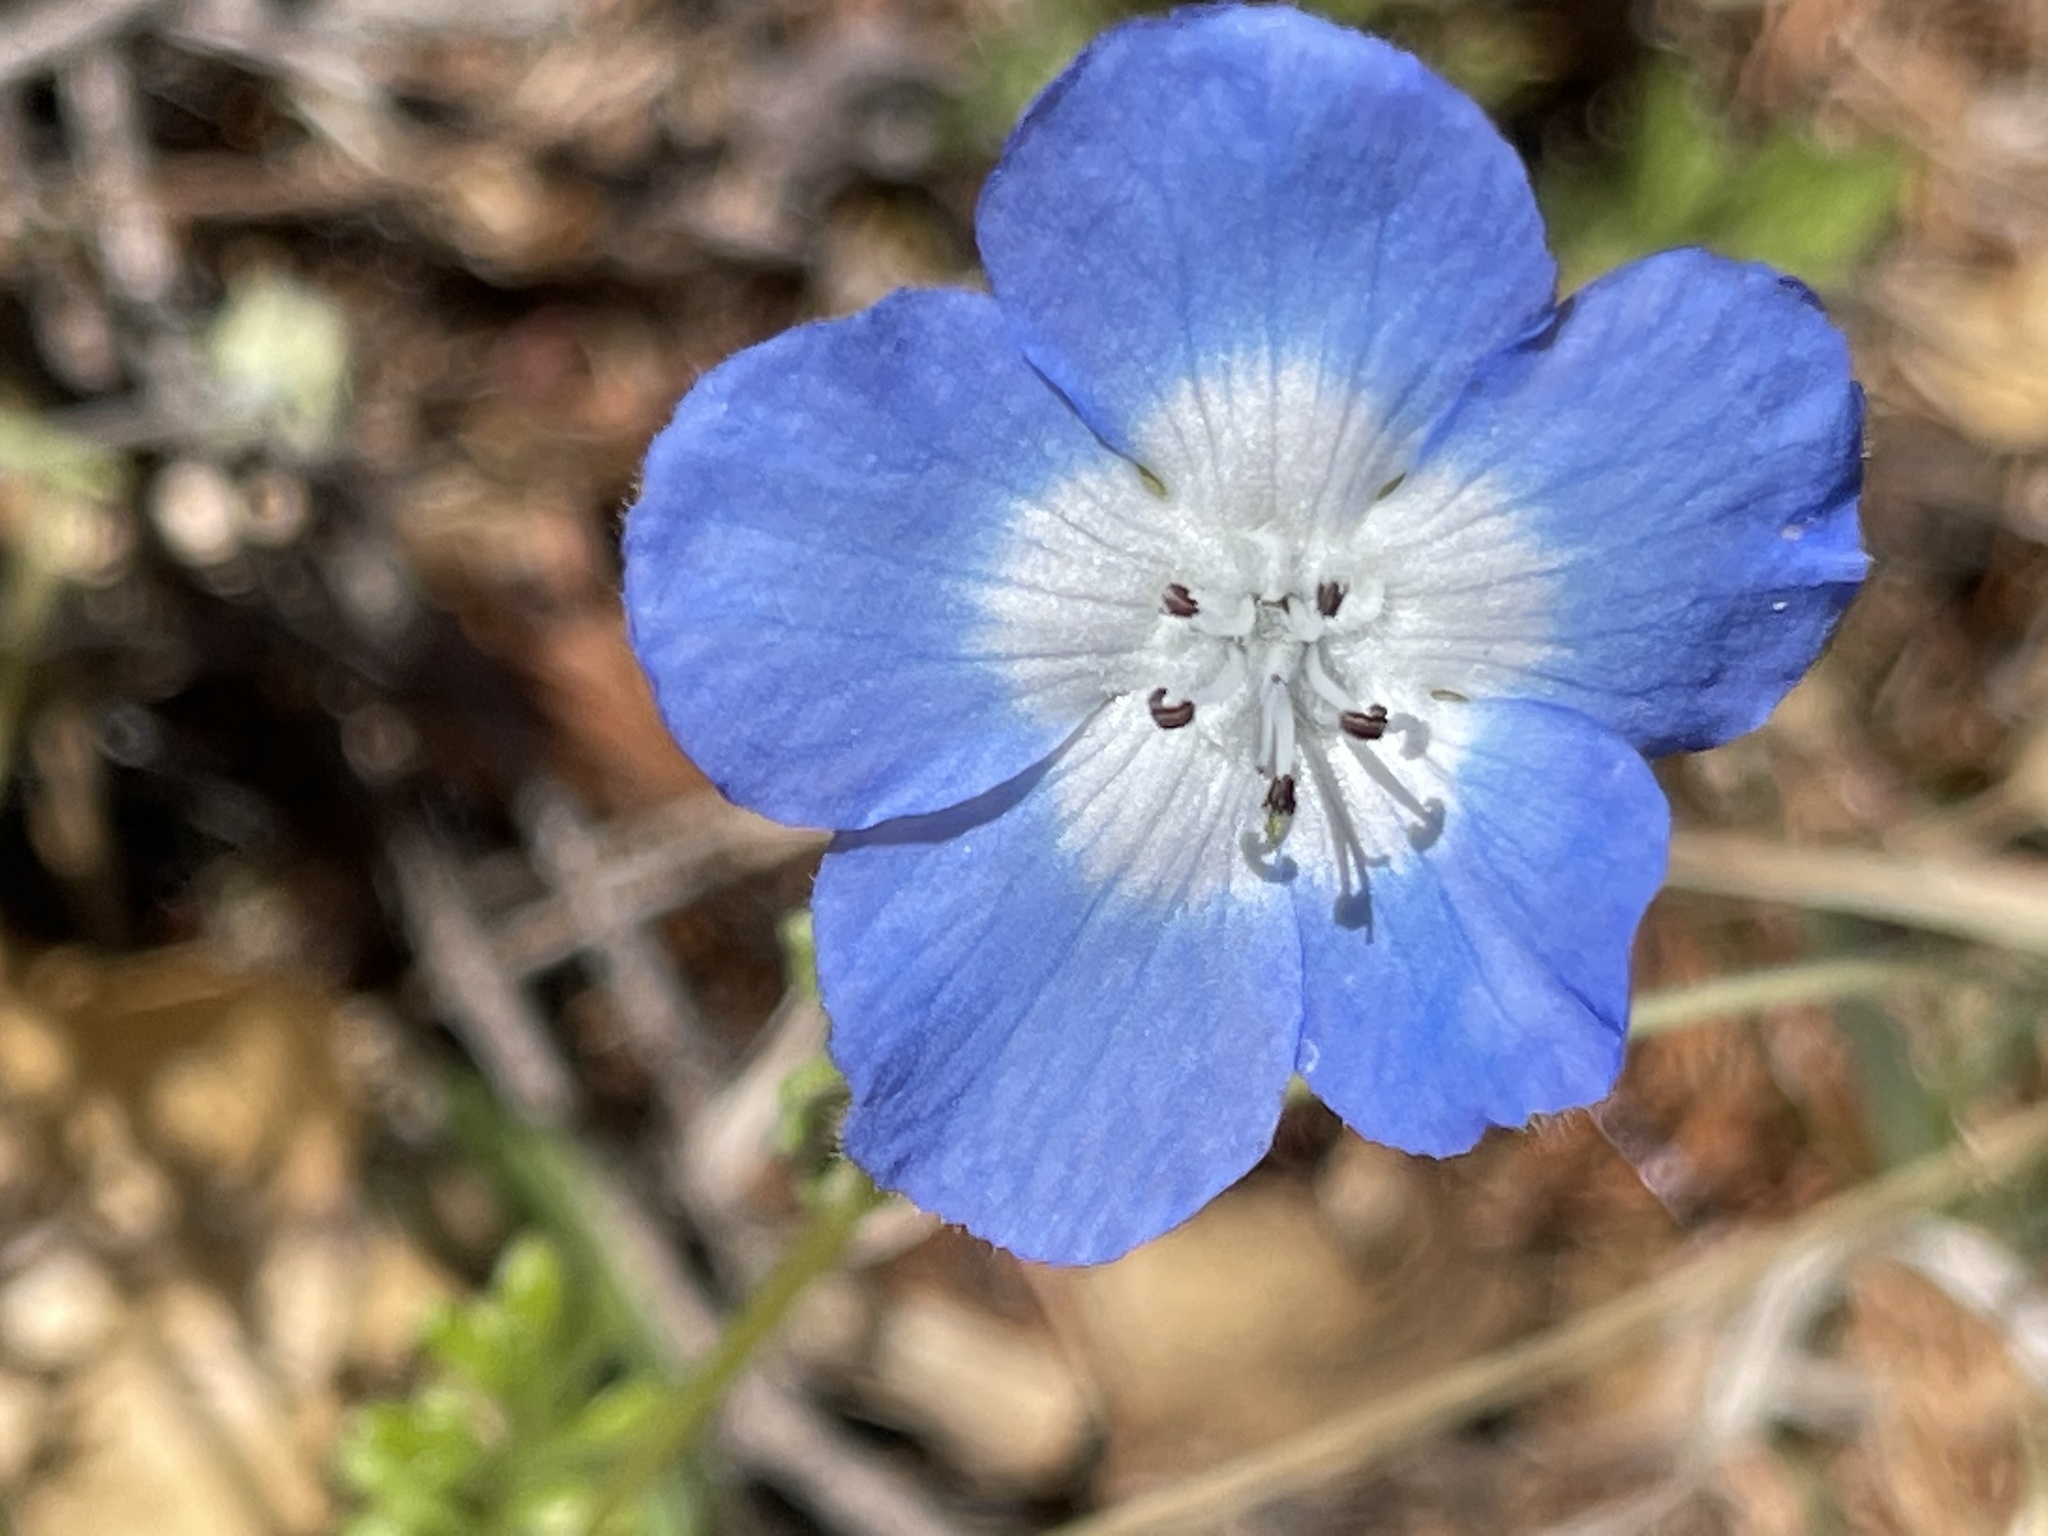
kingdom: Plantae
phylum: Tracheophyta
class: Magnoliopsida
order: Boraginales
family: Hydrophyllaceae
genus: Nemophila
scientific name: Nemophila menziesii
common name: Baby's-blue-eyes
